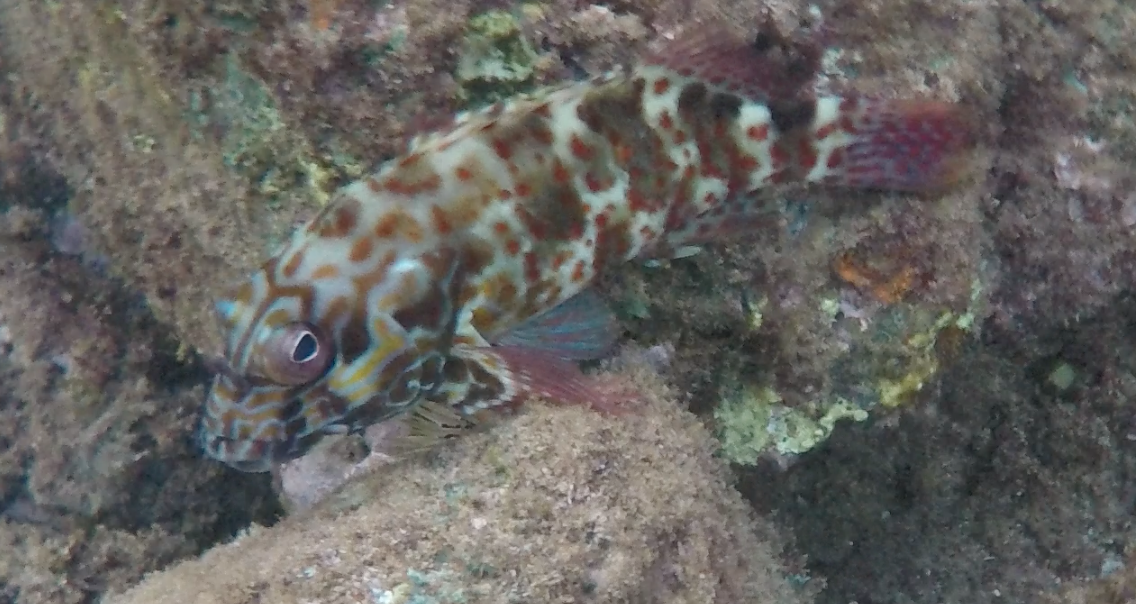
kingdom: Animalia
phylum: Chordata
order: Perciformes
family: Cirrhitidae
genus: Cirrhitus
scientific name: Cirrhitus pinnulatus
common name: Stocky hawkfish
